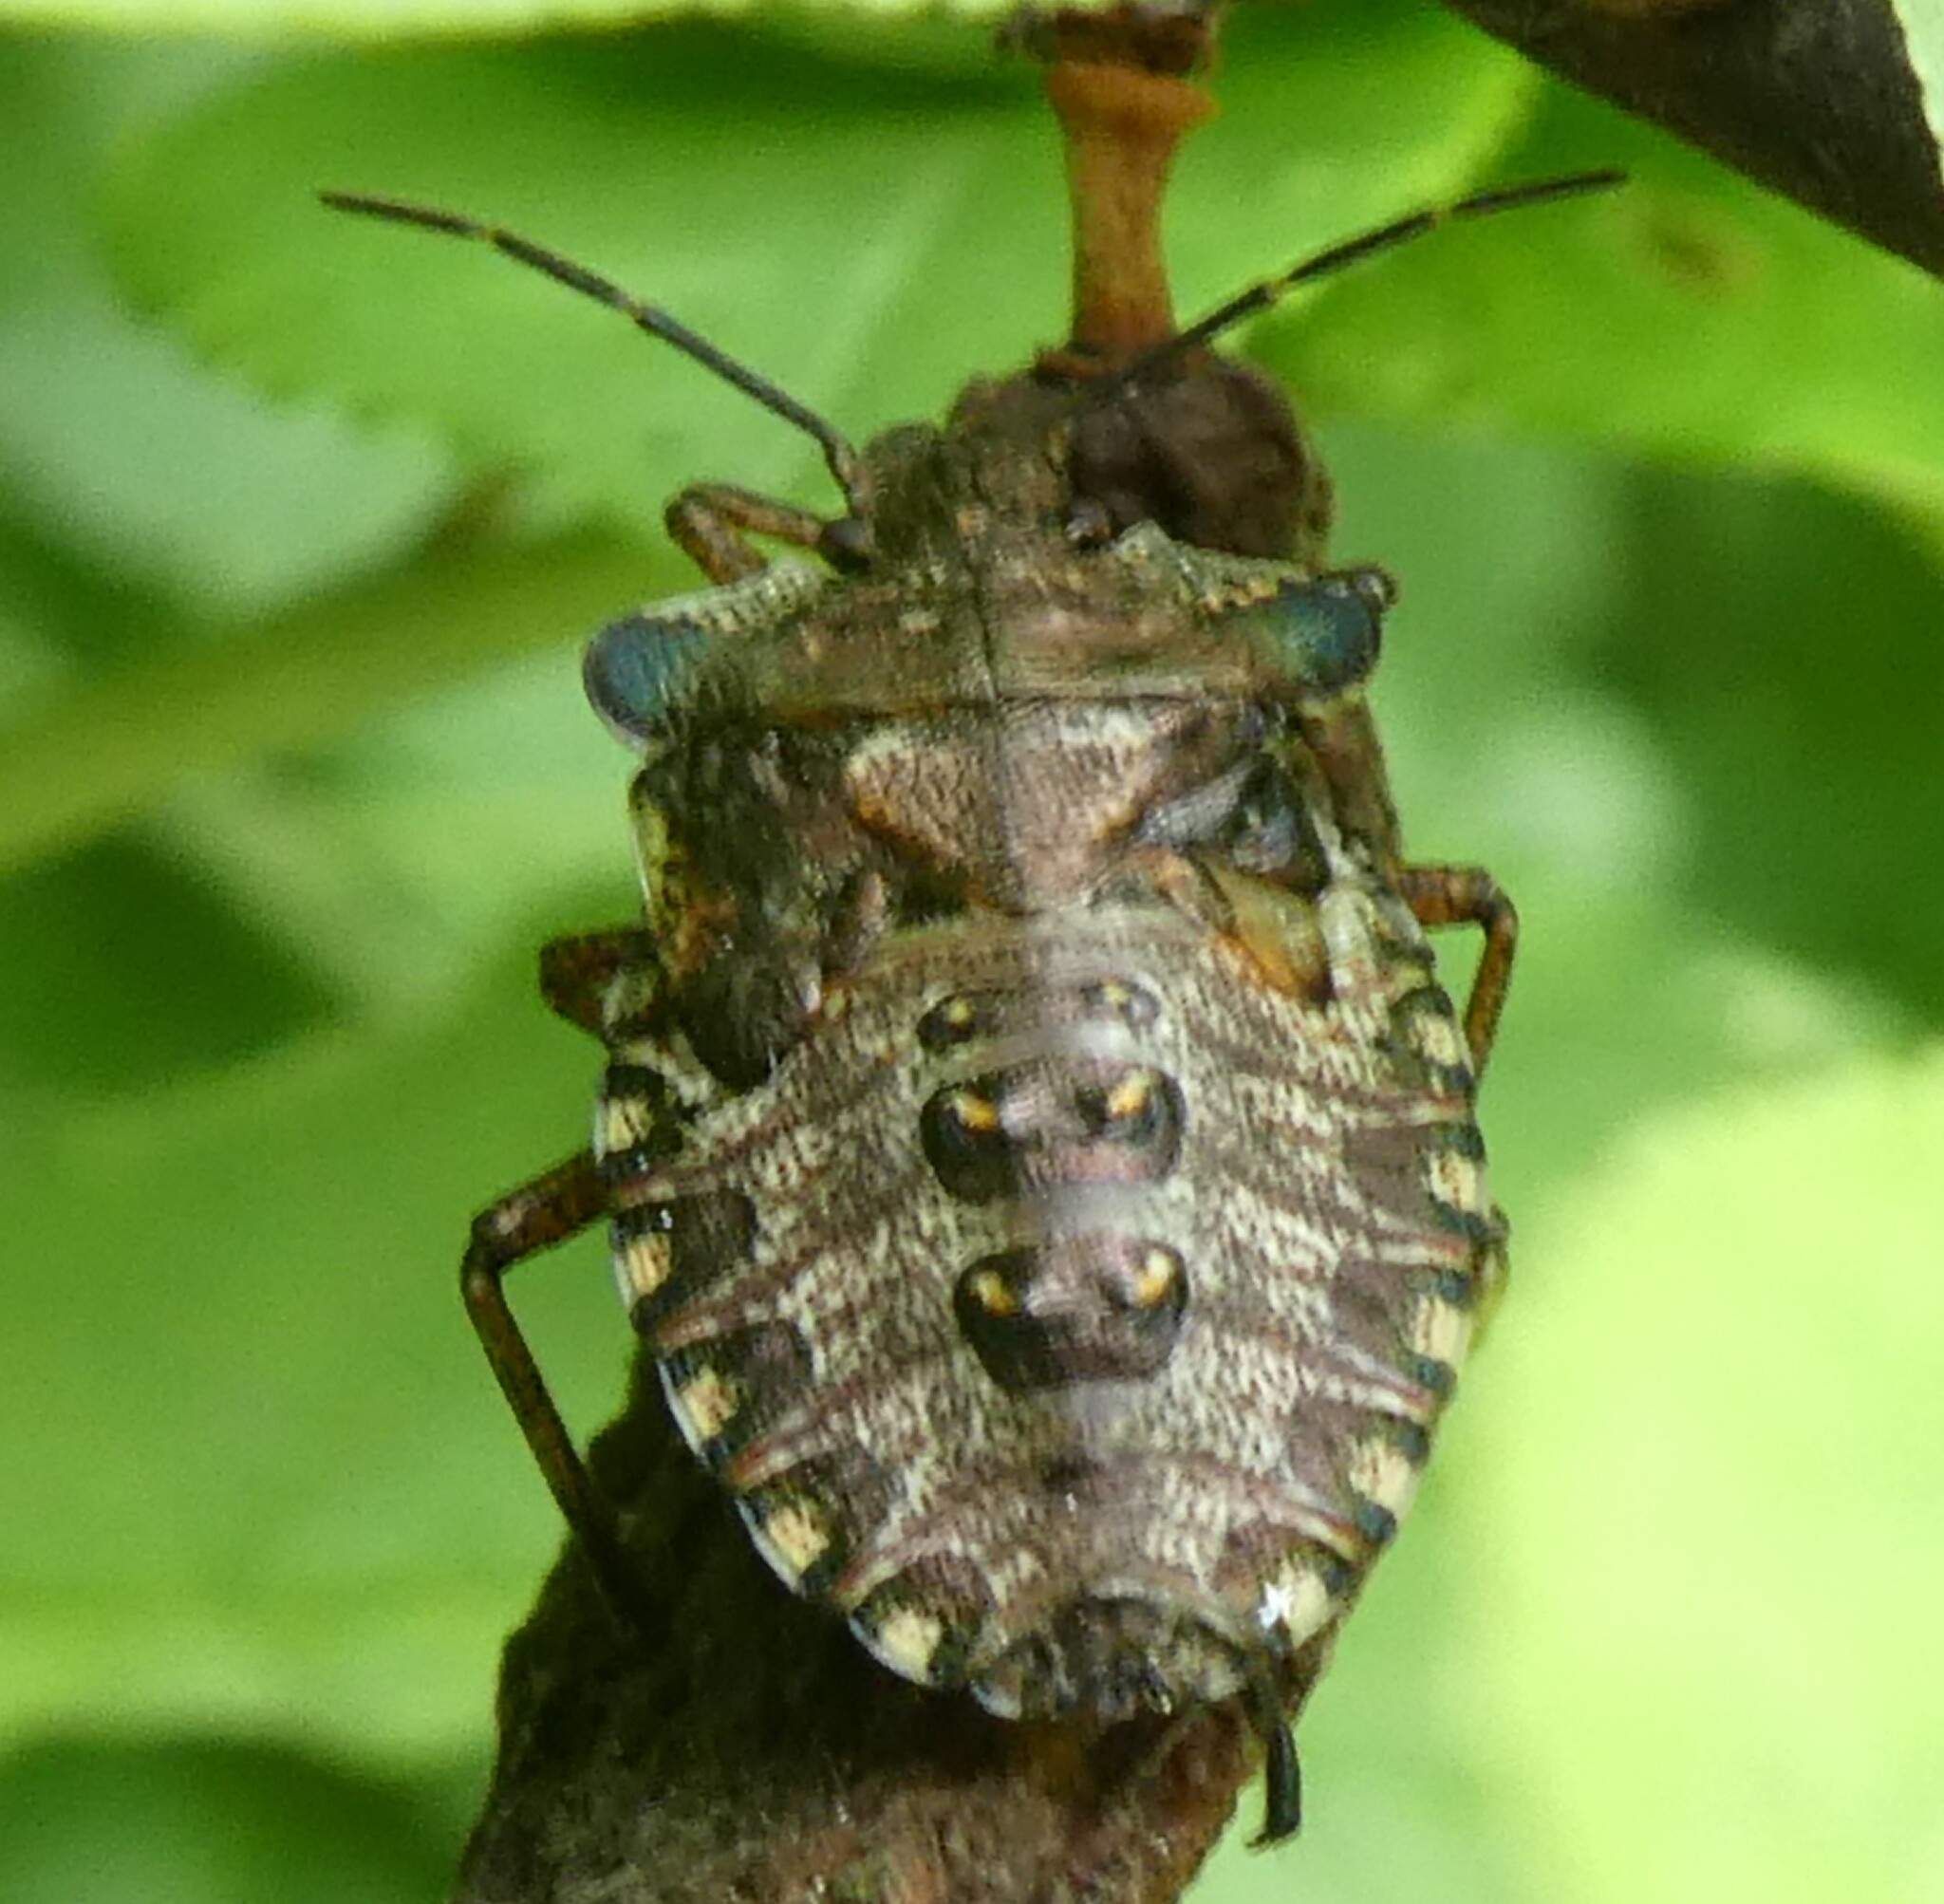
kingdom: Animalia
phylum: Arthropoda
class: Insecta
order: Hemiptera
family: Pentatomidae
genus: Pentatoma
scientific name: Pentatoma rufipes
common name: Forest bug
